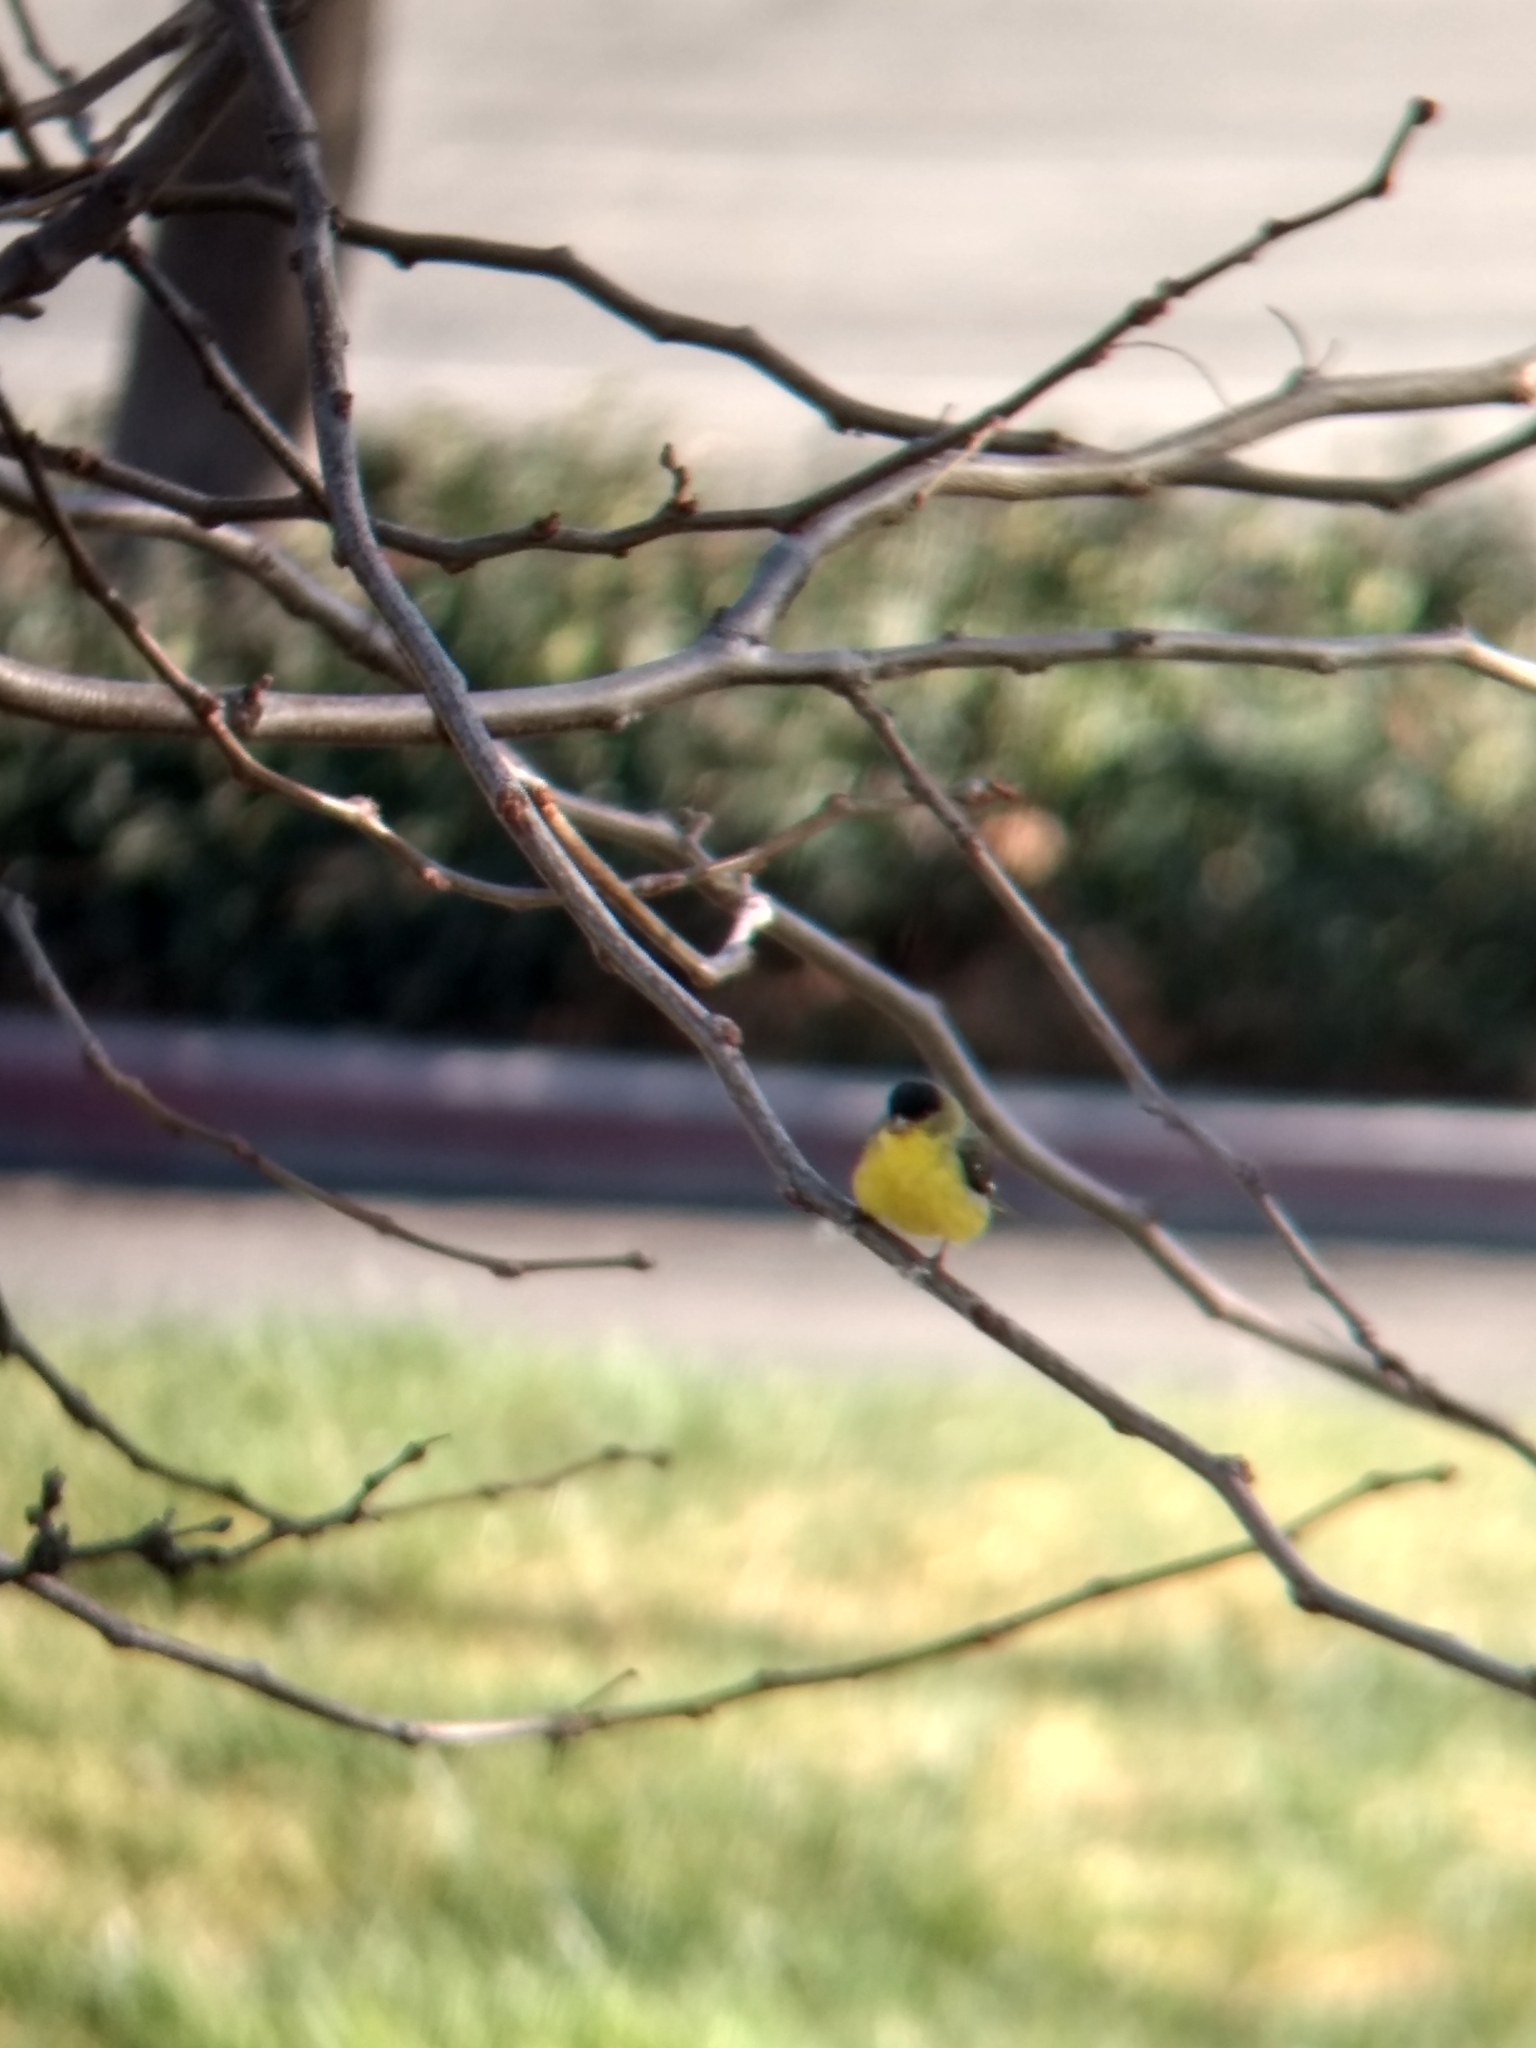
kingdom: Animalia
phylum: Chordata
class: Aves
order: Passeriformes
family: Fringillidae
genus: Spinus
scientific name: Spinus psaltria
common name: Lesser goldfinch
